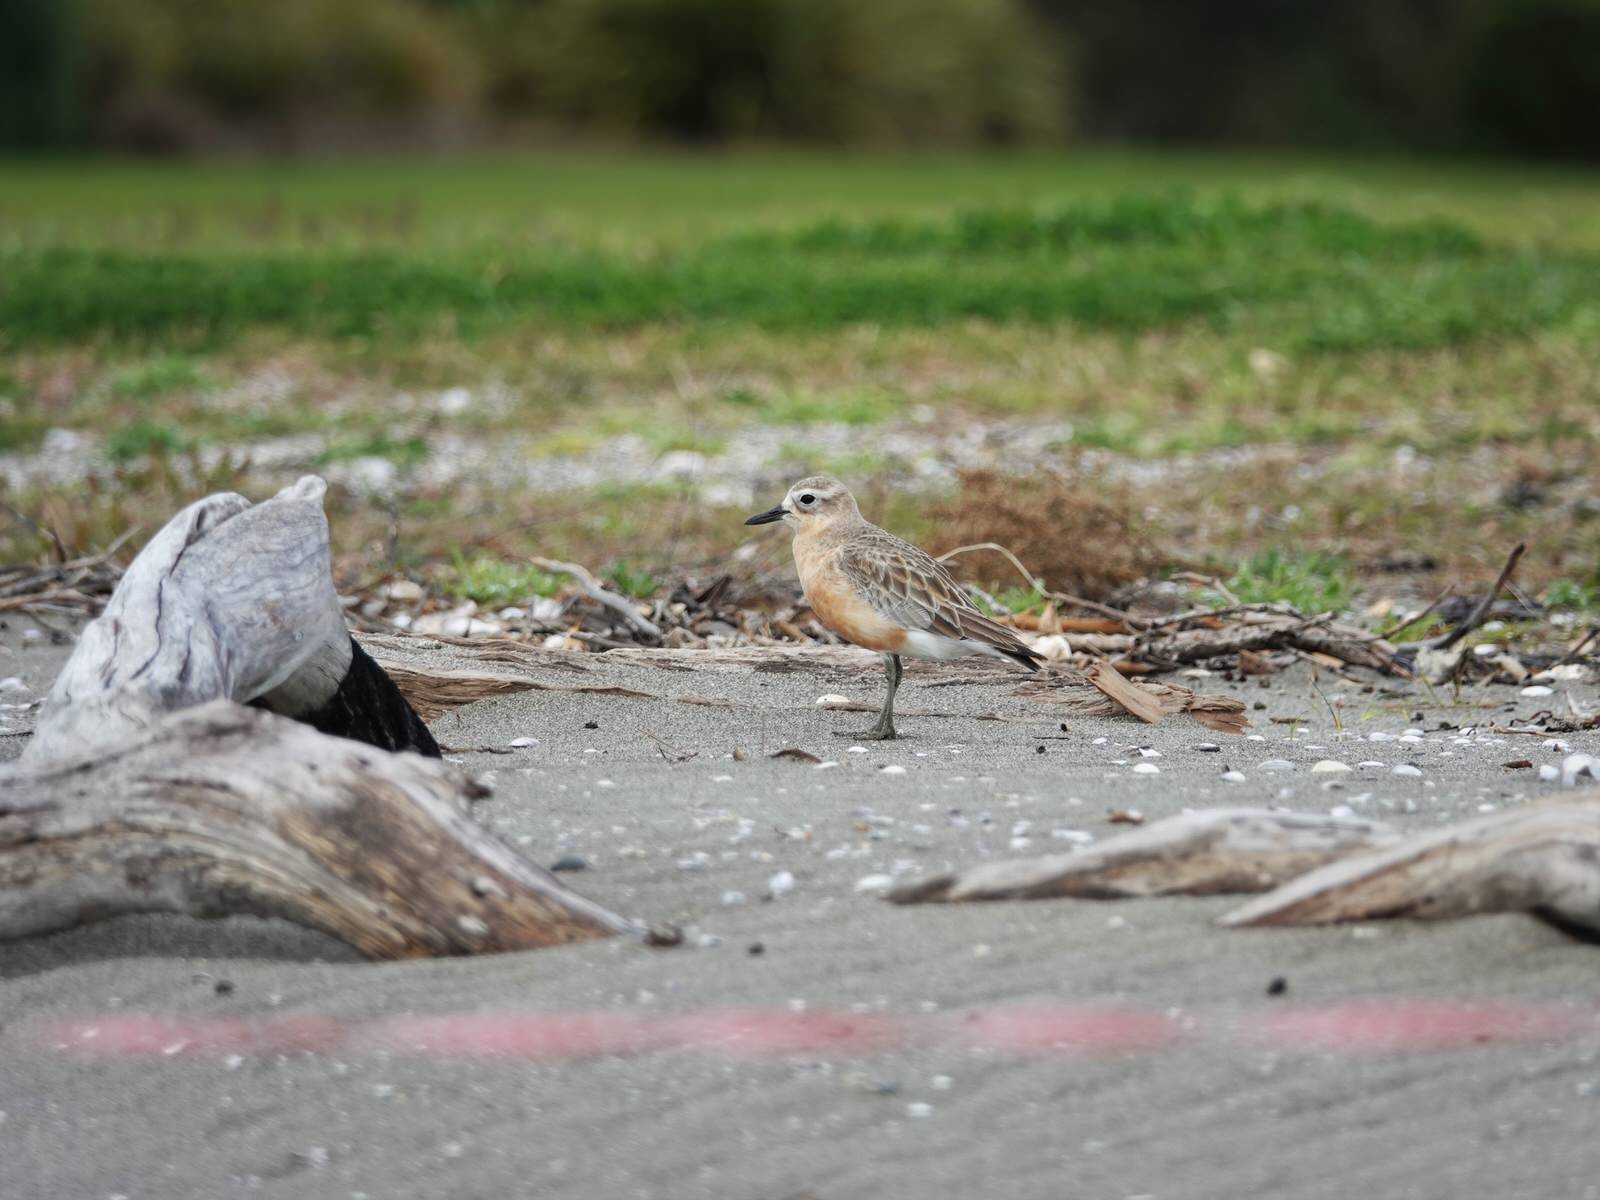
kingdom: Animalia
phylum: Chordata
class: Aves
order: Charadriiformes
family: Charadriidae
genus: Anarhynchus
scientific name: Anarhynchus
